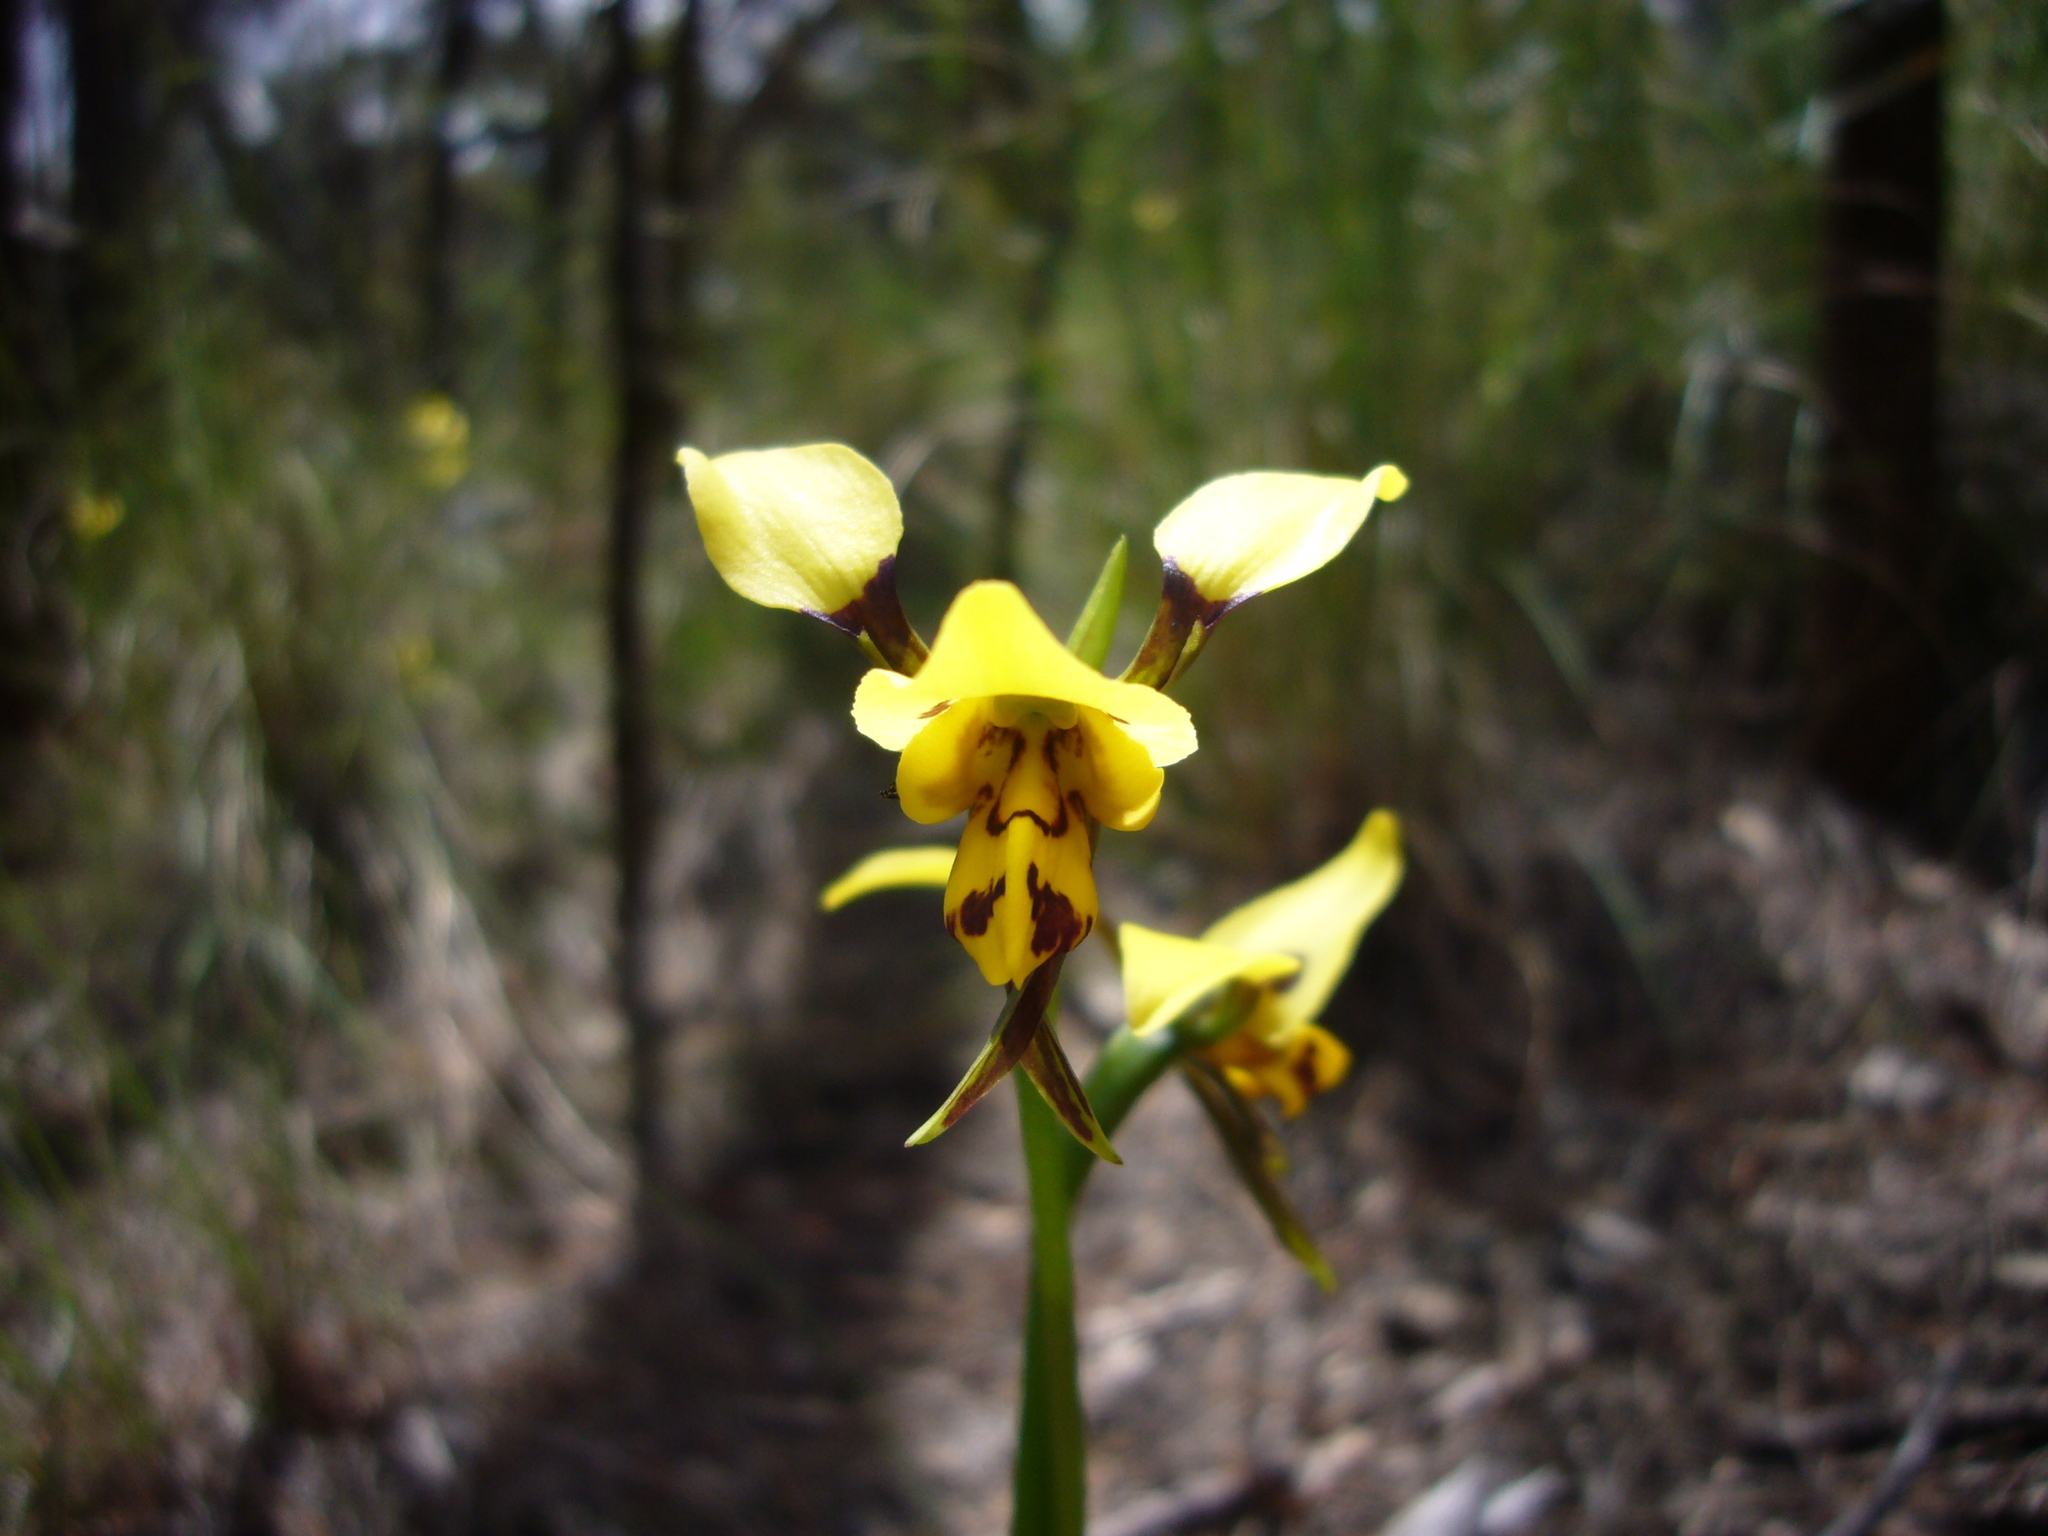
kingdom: Plantae
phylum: Tracheophyta
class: Liliopsida
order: Asparagales
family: Orchidaceae
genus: Diuris
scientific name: Diuris sulphurea
